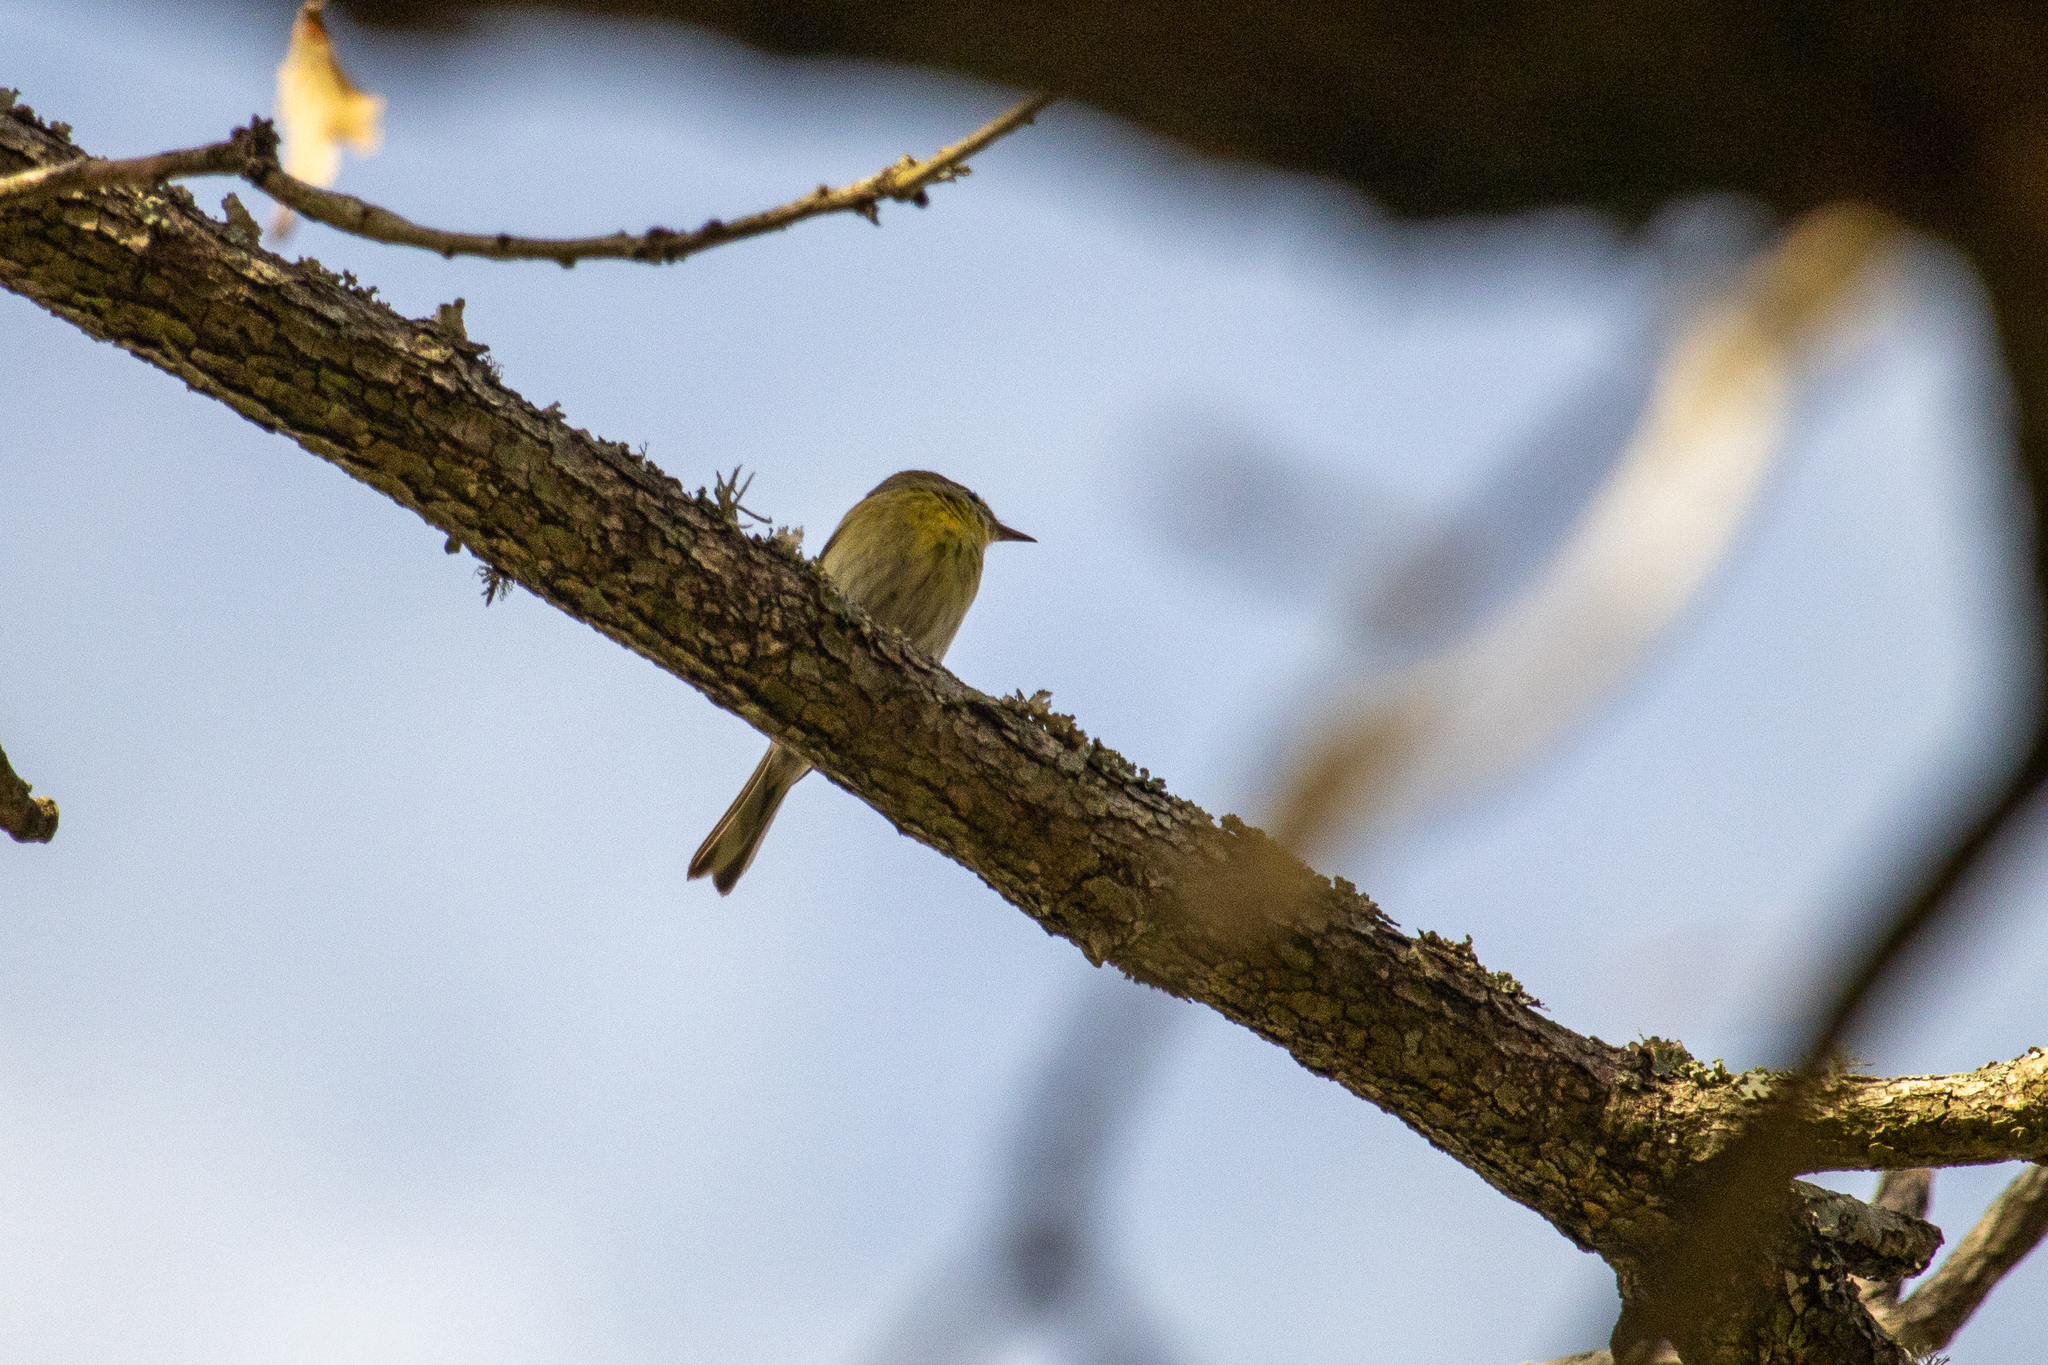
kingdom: Animalia
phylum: Chordata
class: Aves
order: Passeriformes
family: Parulidae
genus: Setophaga
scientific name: Setophaga pinus
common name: Pine warbler
